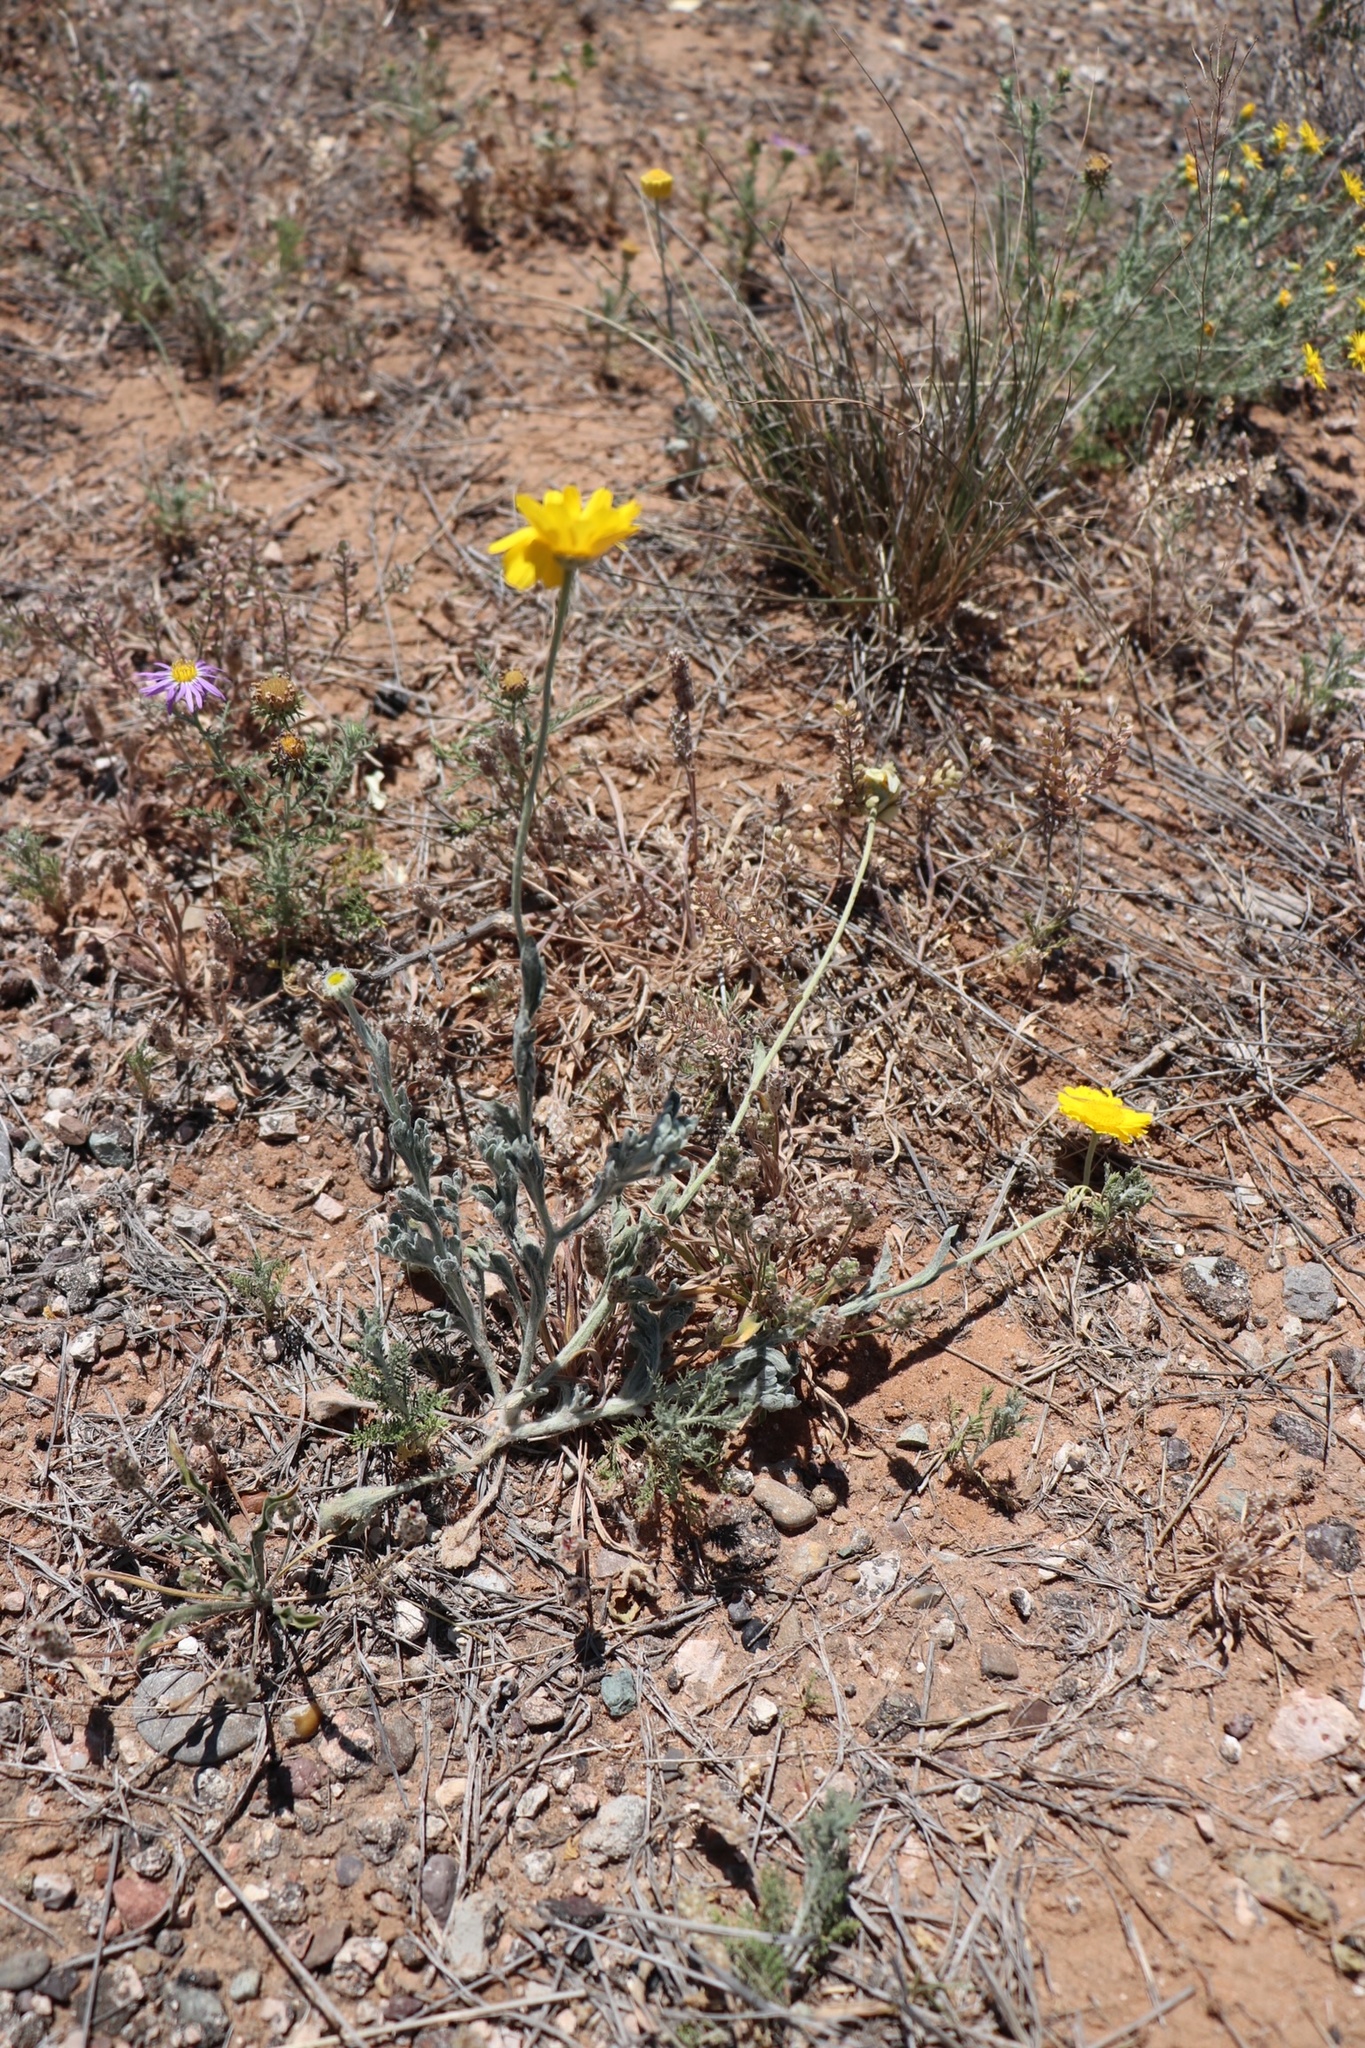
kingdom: Plantae
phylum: Tracheophyta
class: Magnoliopsida
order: Asterales
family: Asteraceae
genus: Baileya
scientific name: Baileya multiradiata
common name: Desert-marigold
